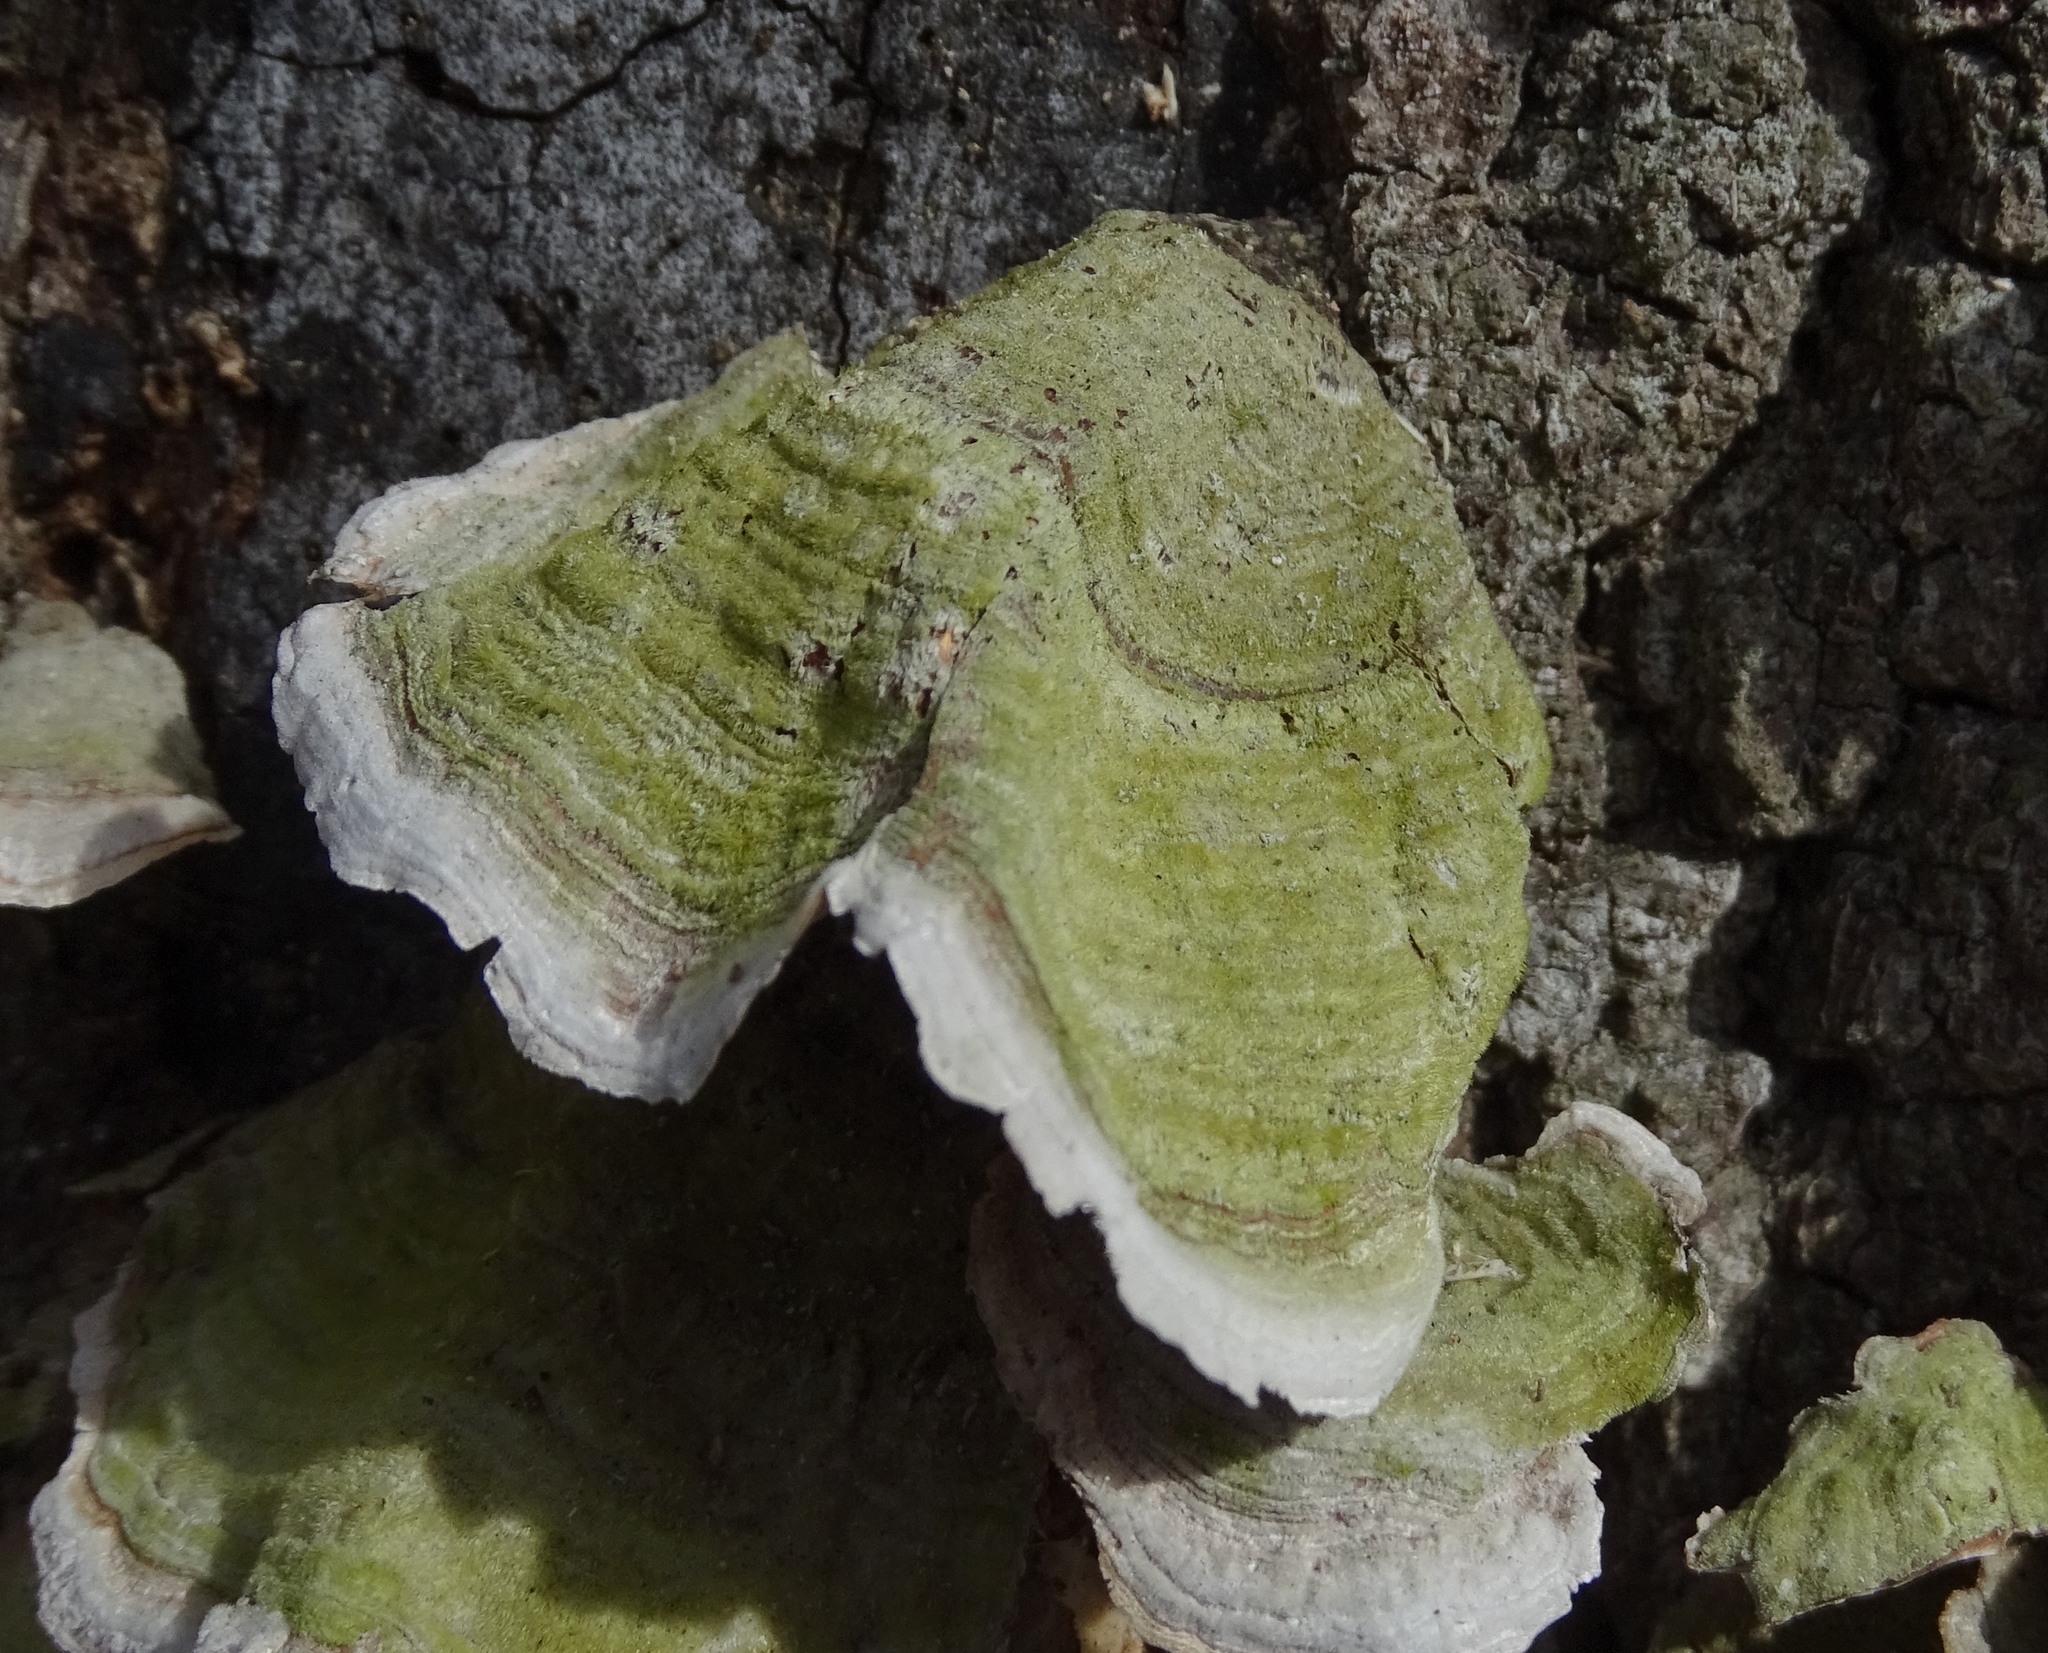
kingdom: Fungi
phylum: Basidiomycota
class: Agaricomycetes
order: Russulales
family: Stereaceae
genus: Stereum
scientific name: Stereum ostrea
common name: False turkeytail
